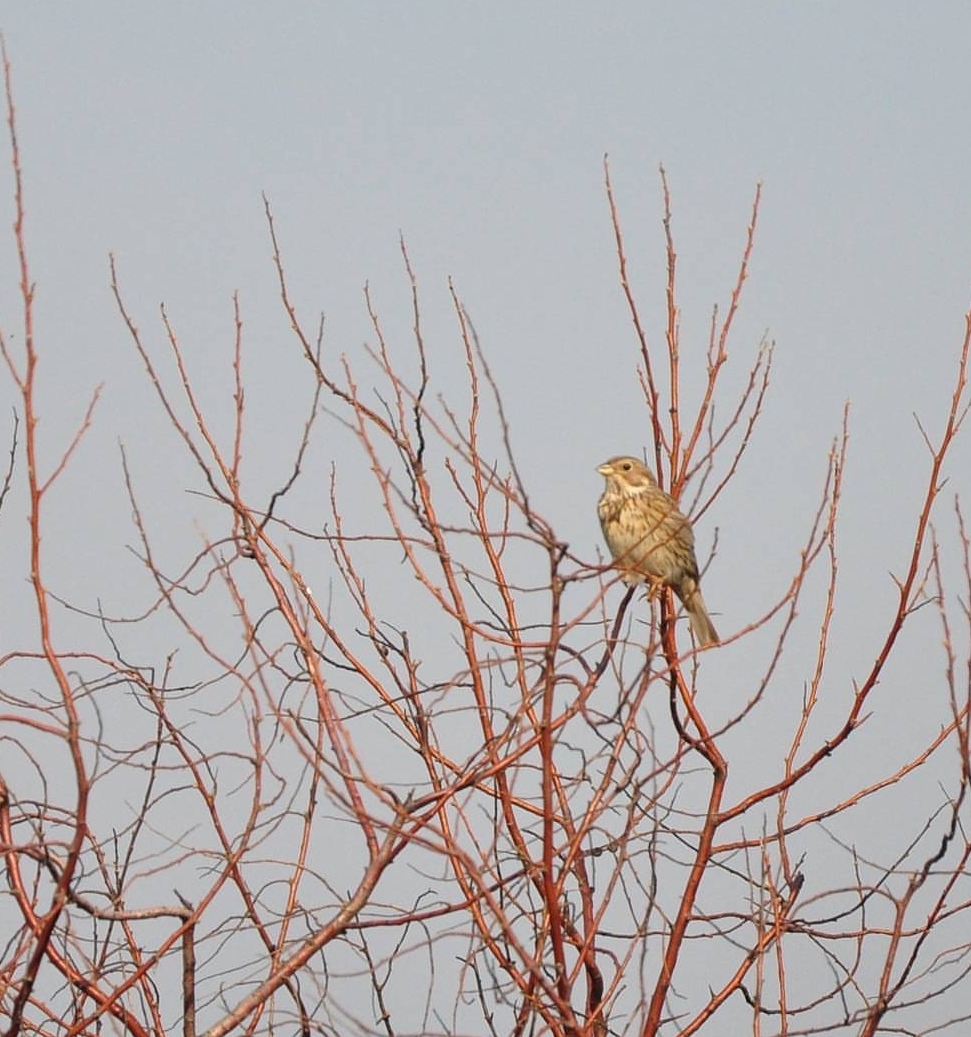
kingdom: Animalia
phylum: Chordata
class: Aves
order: Passeriformes
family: Emberizidae
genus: Emberiza
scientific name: Emberiza calandra
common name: Corn bunting
